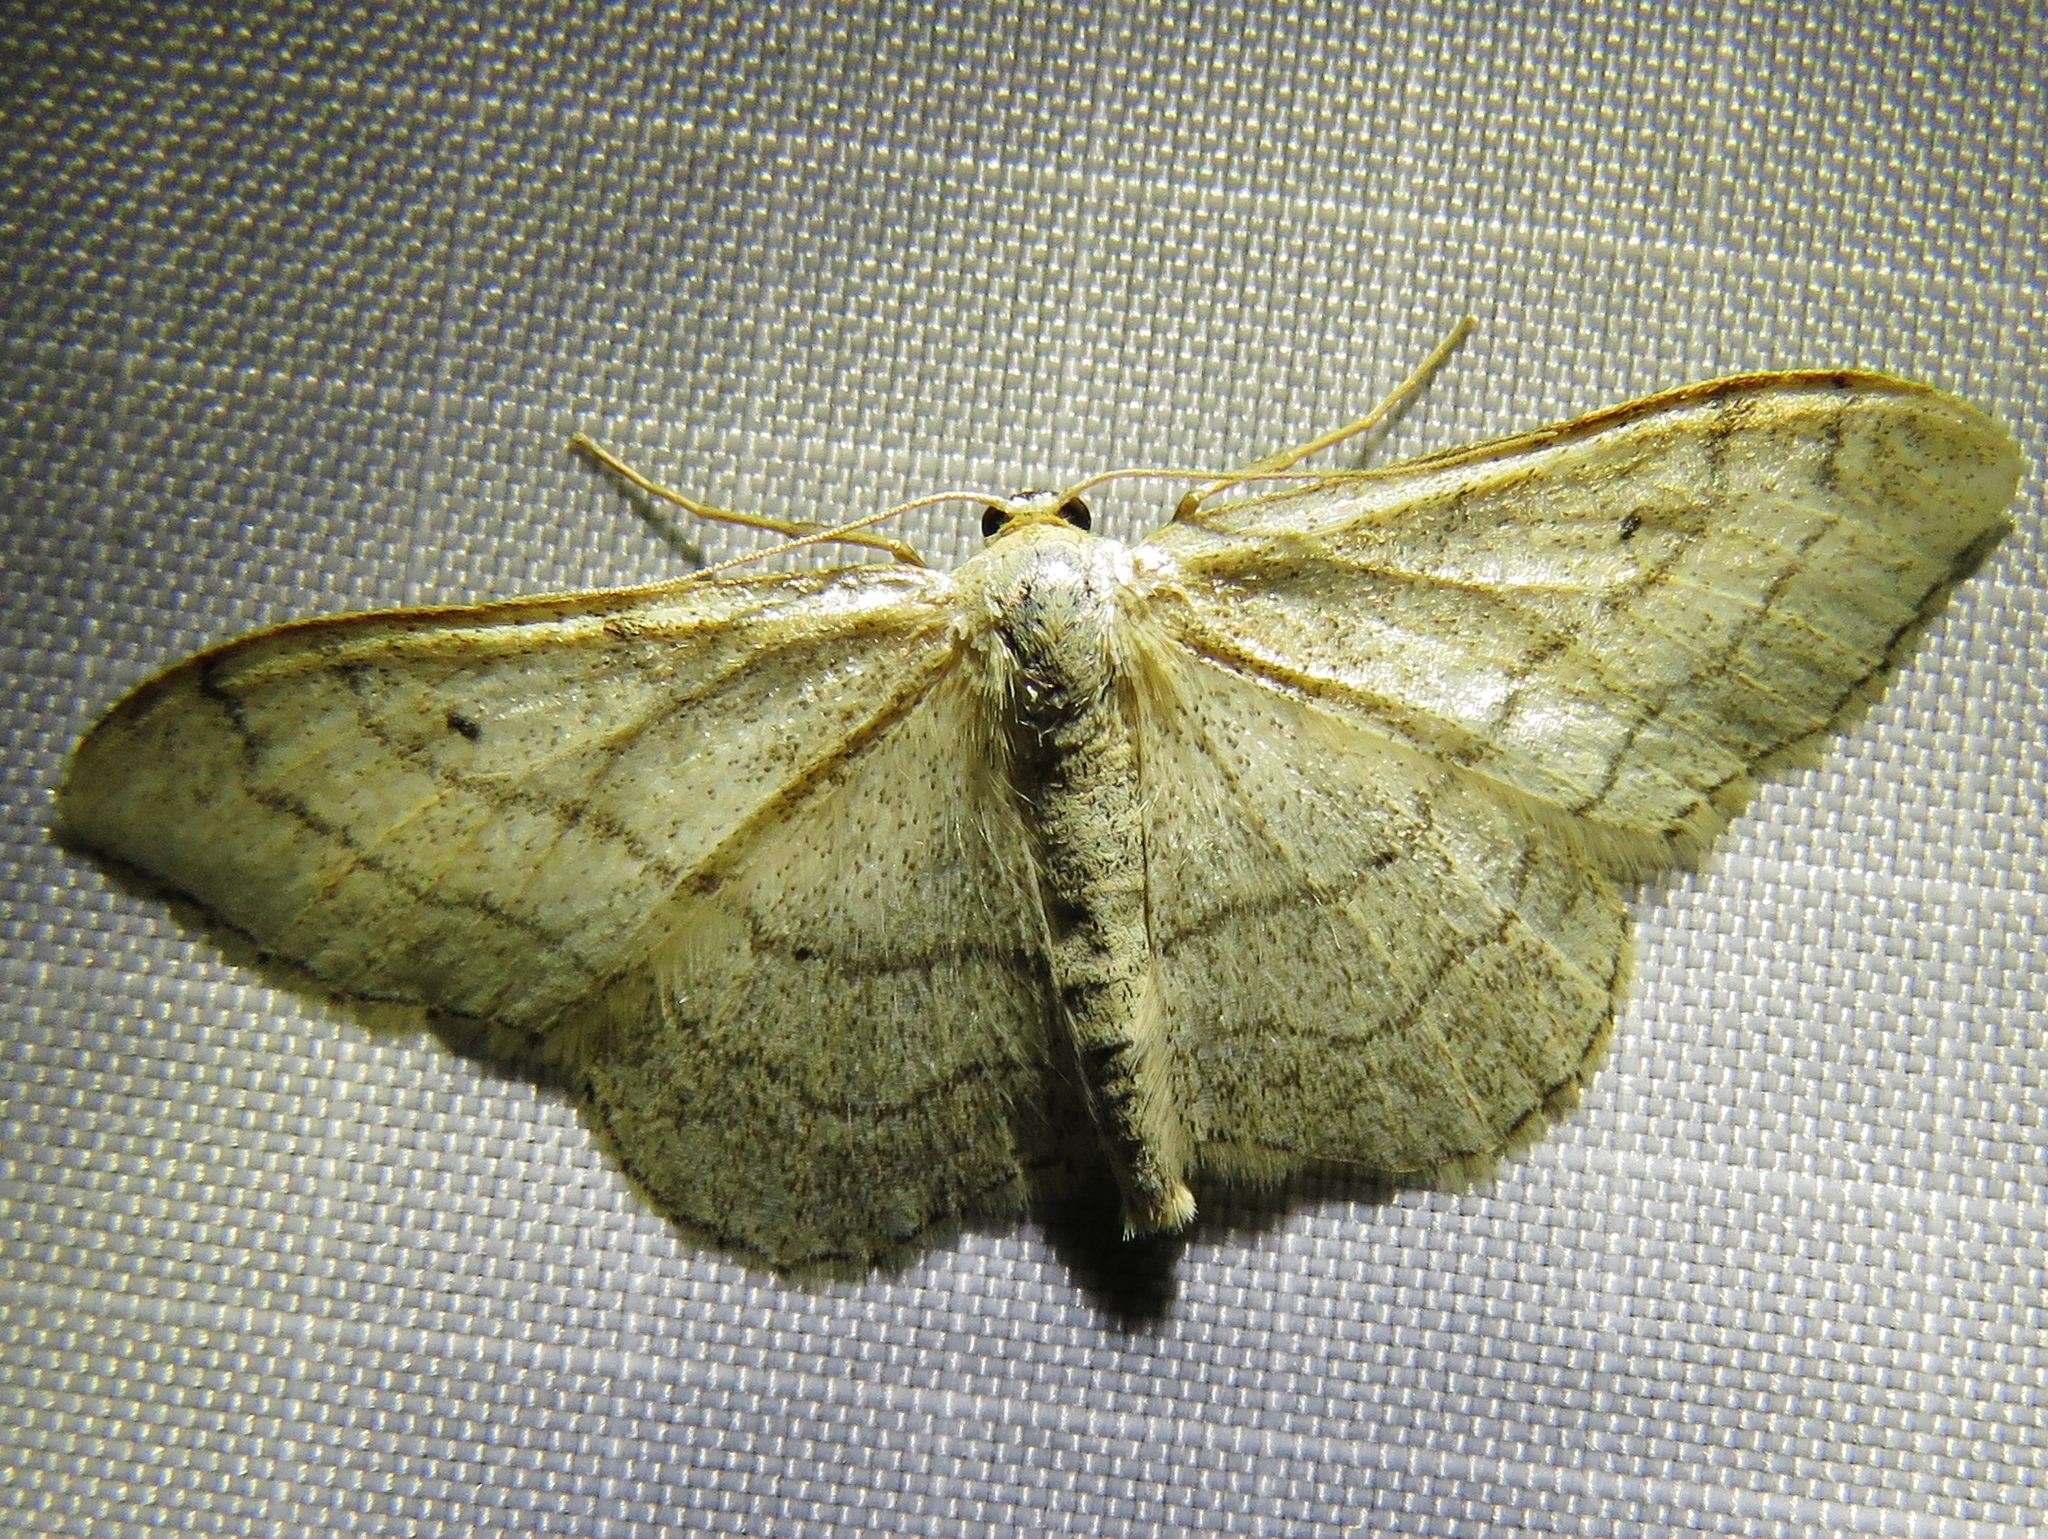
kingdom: Animalia
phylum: Arthropoda
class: Insecta
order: Lepidoptera
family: Geometridae
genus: Idaea
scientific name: Idaea aversata
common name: Riband wave
